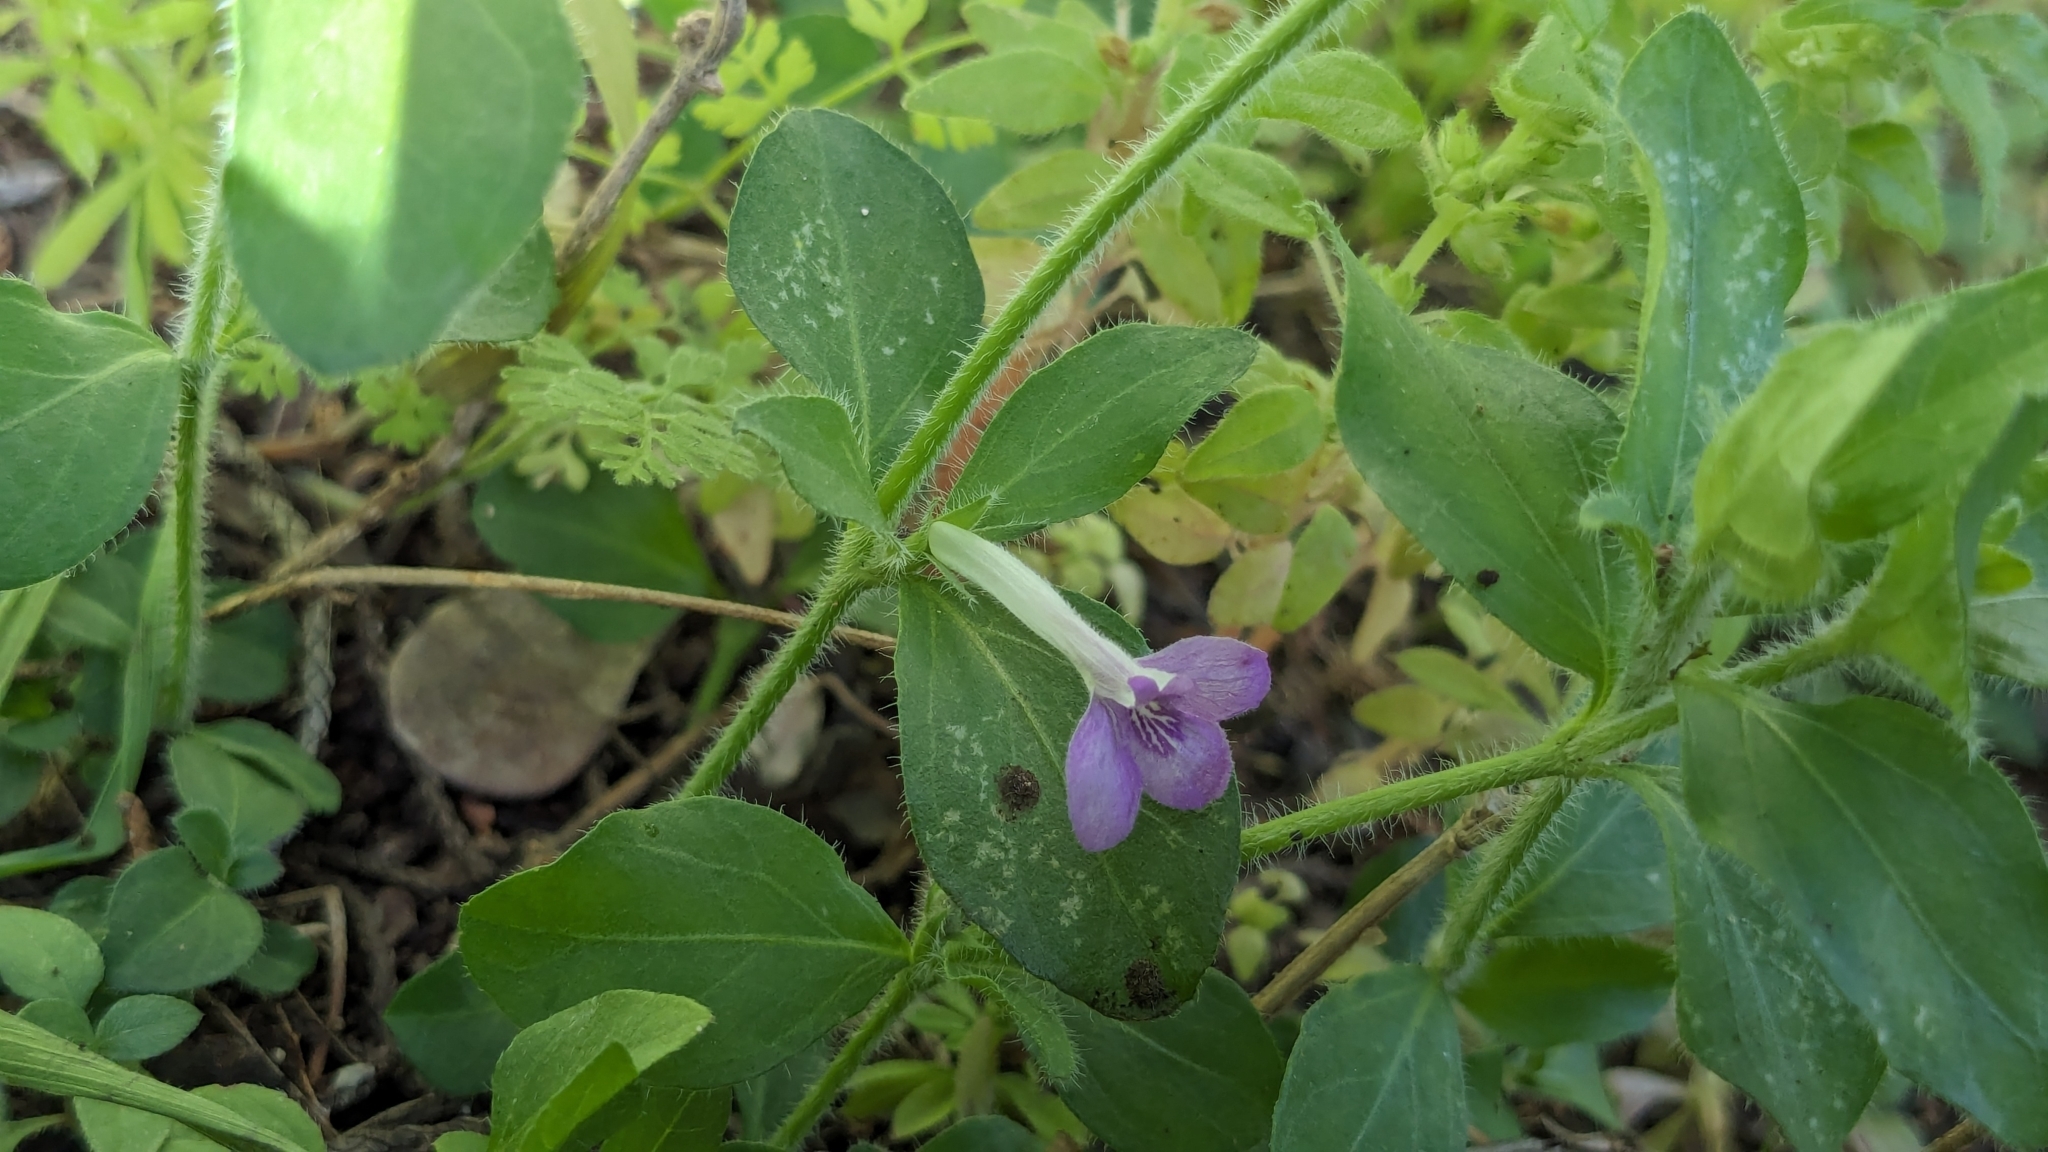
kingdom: Plantae
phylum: Tracheophyta
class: Magnoliopsida
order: Lamiales
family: Acanthaceae
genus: Justicia
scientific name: Justicia pilosella
